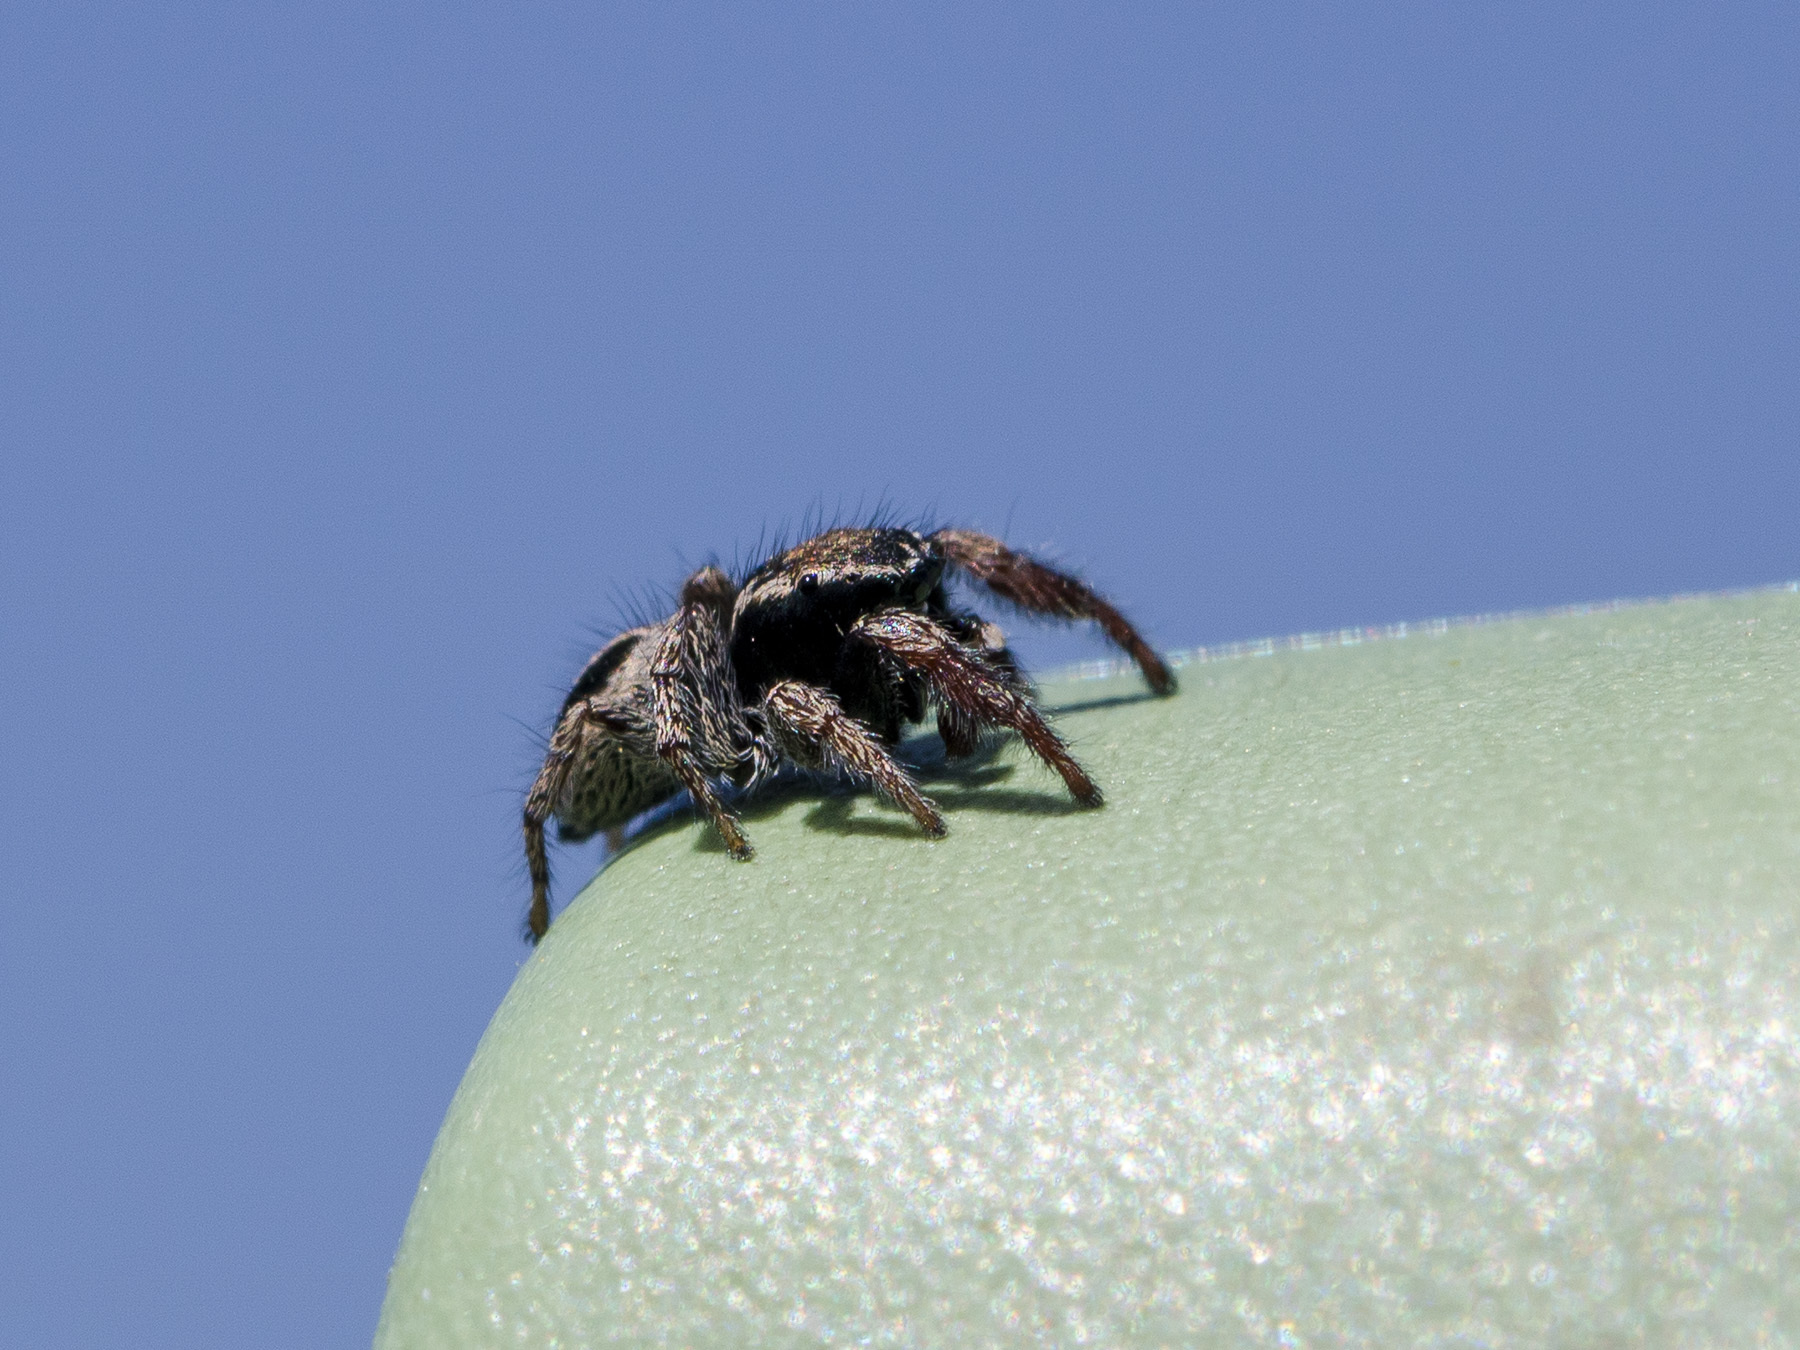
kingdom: Animalia
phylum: Arthropoda
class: Arachnida
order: Araneae
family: Salticidae
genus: Pellenes
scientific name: Pellenes epularis
